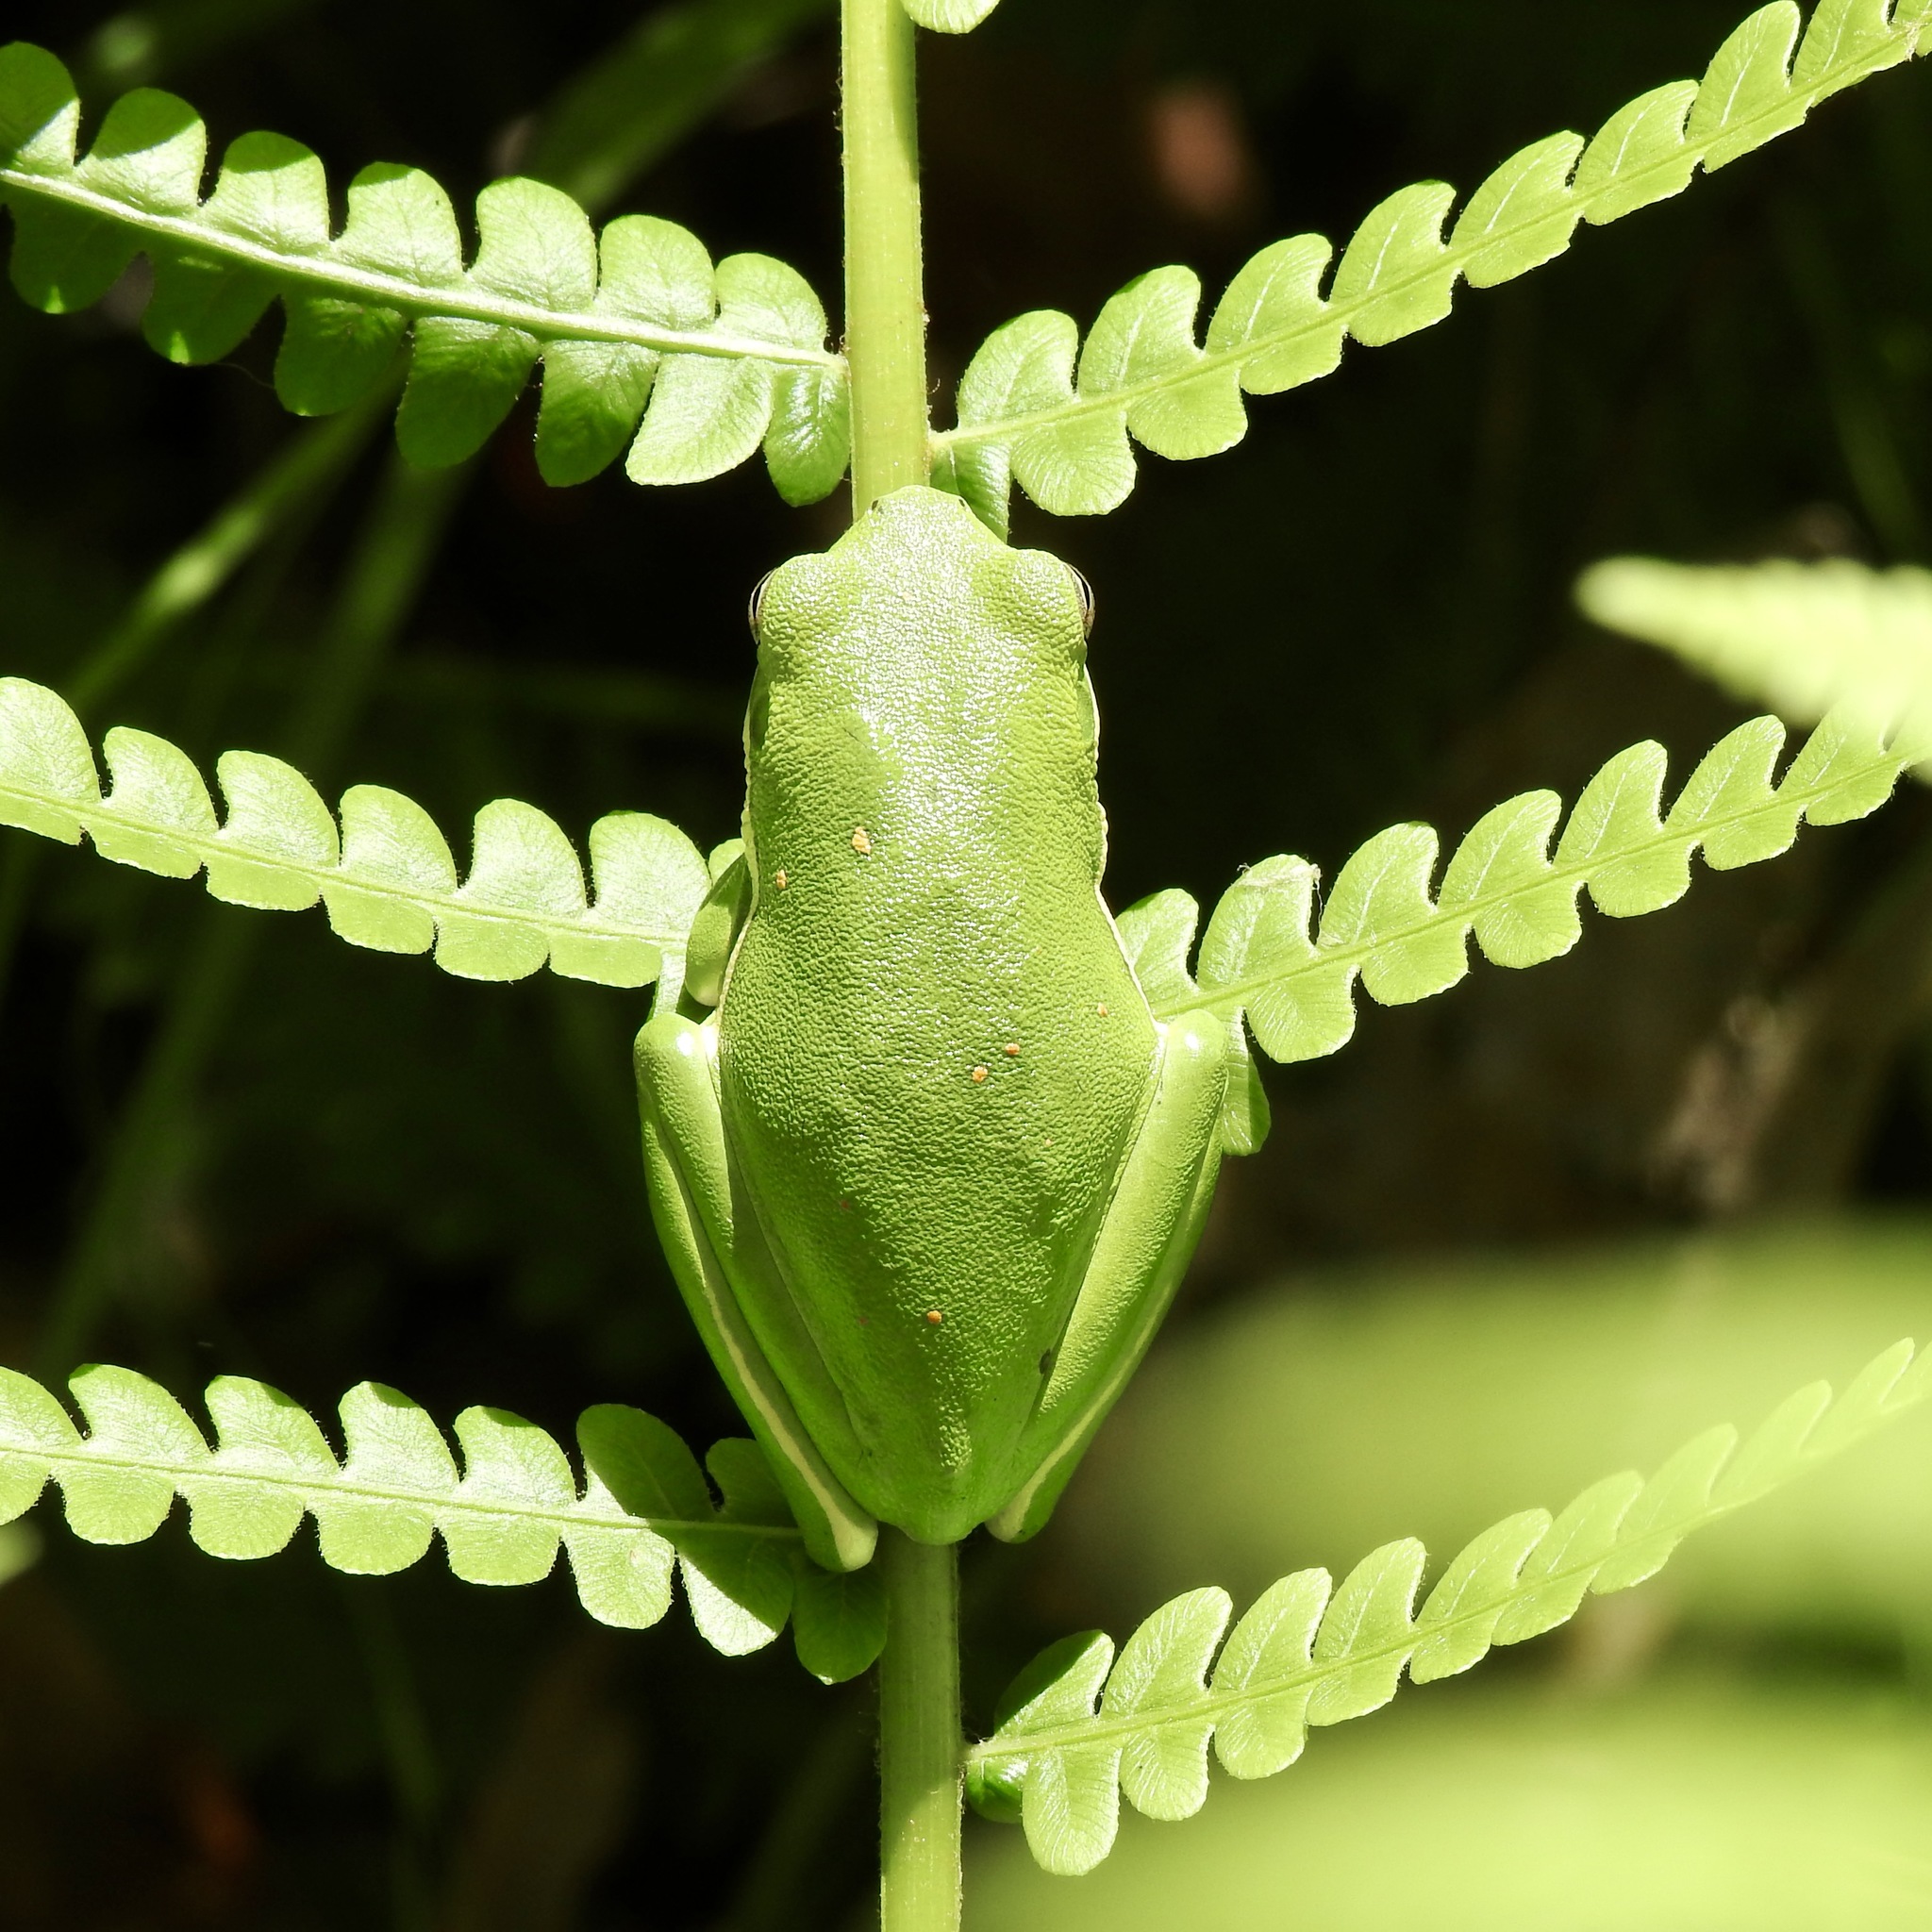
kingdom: Animalia
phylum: Chordata
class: Amphibia
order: Anura
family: Hylidae
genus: Dryophytes
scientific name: Dryophytes cinereus
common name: Green treefrog
